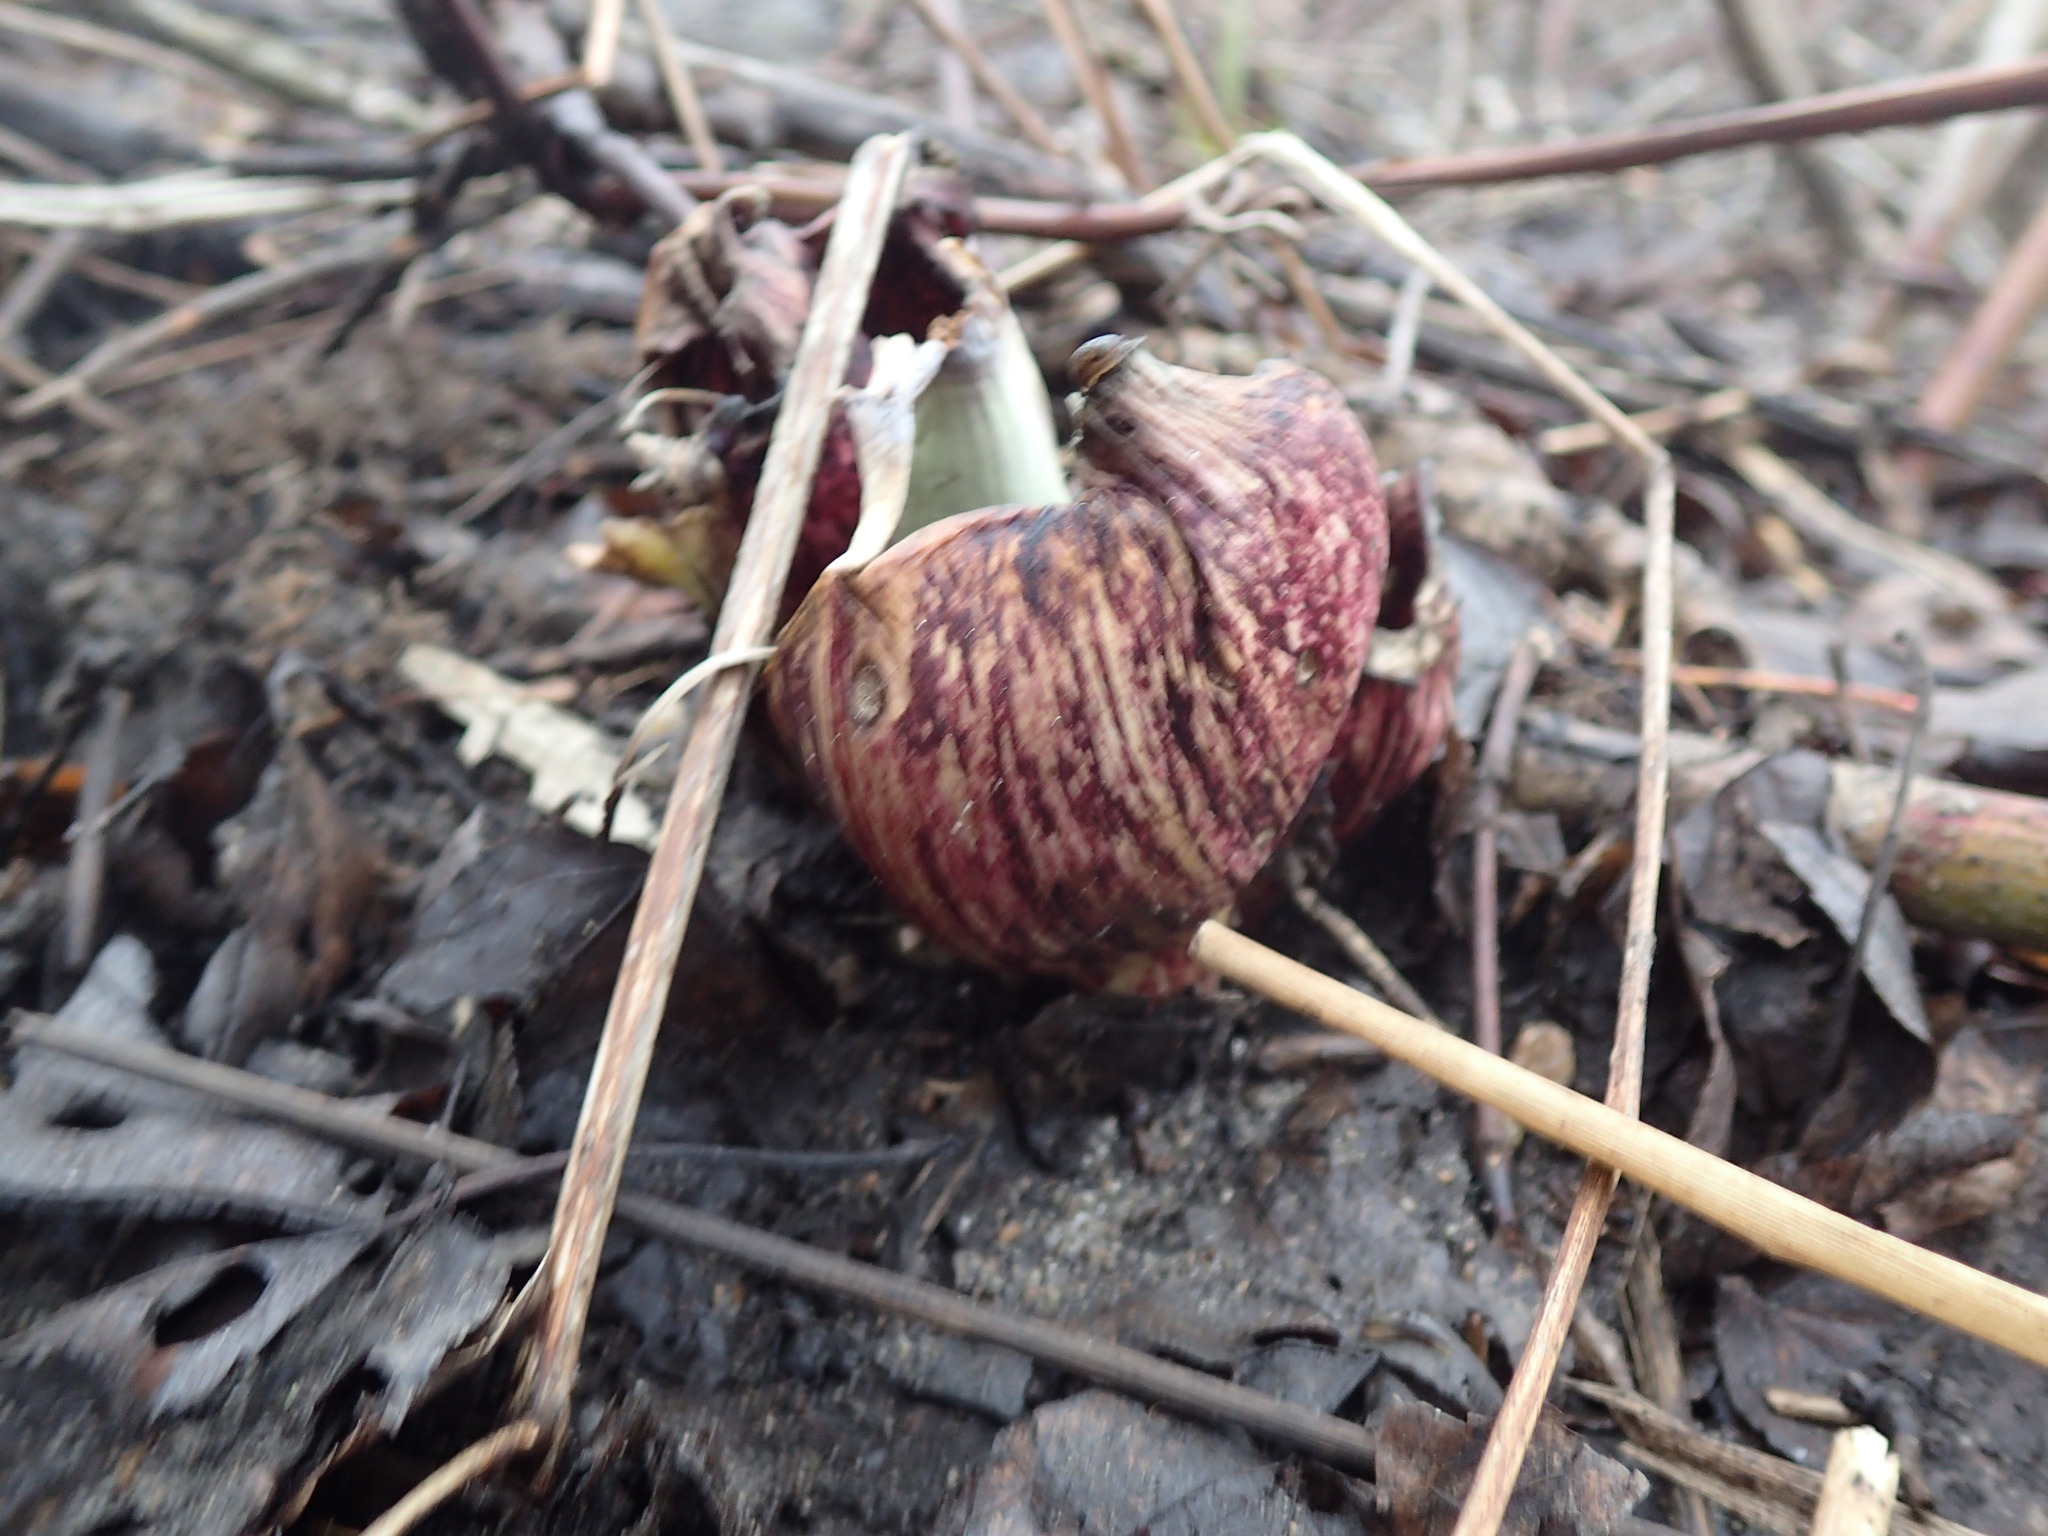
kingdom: Plantae
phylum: Tracheophyta
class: Liliopsida
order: Alismatales
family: Araceae
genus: Symplocarpus
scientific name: Symplocarpus foetidus
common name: Eastern skunk cabbage
